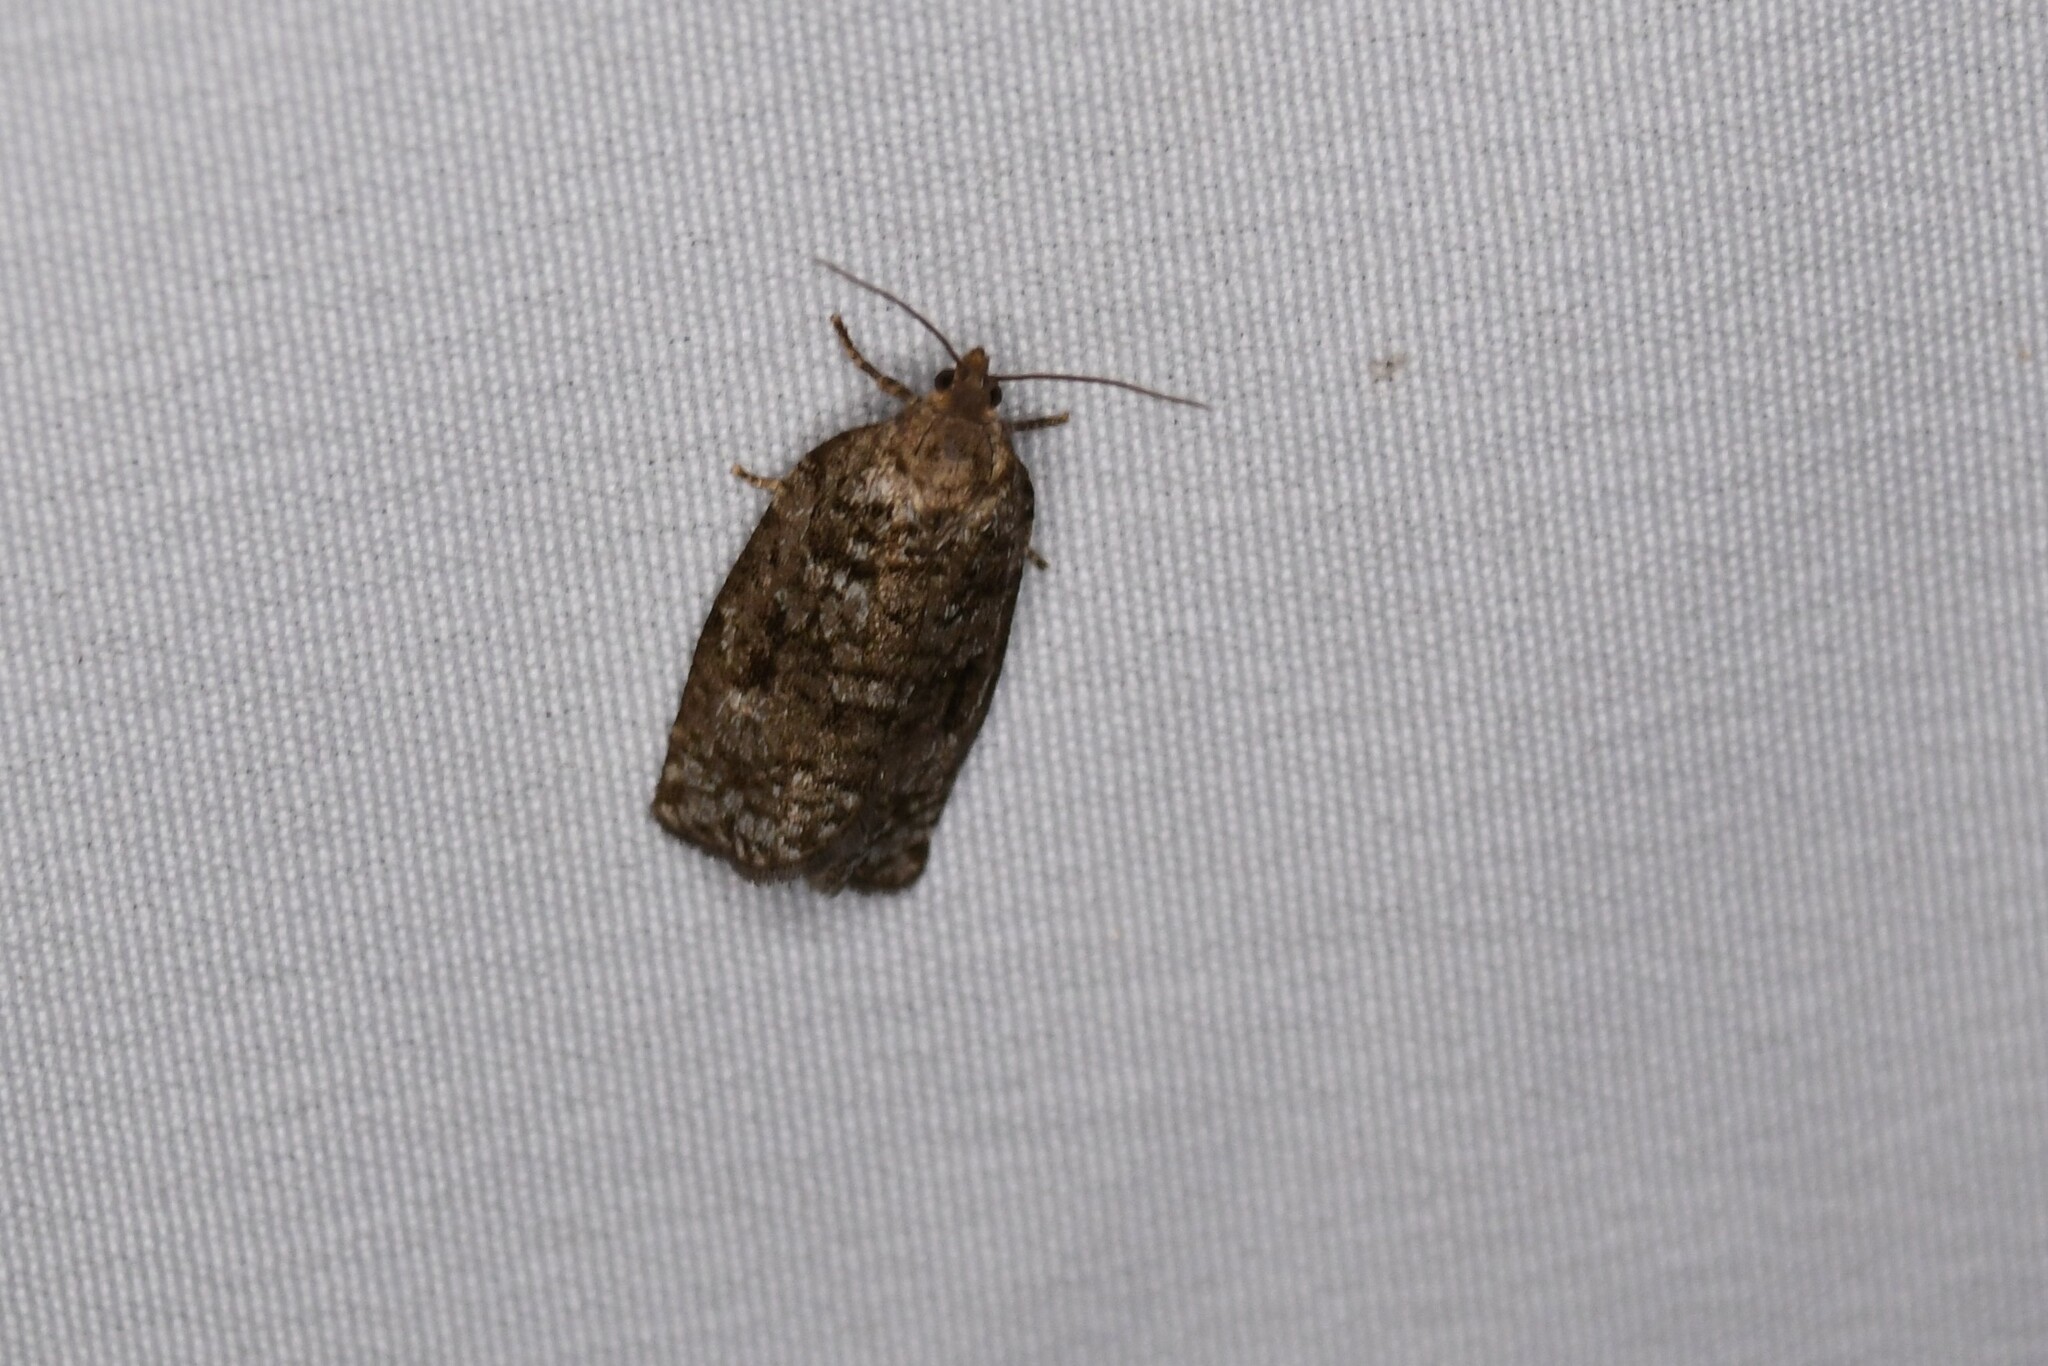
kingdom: Animalia
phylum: Arthropoda
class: Insecta
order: Lepidoptera
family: Tortricidae
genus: Choristoneura
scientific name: Choristoneura fumiferana
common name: Spruce budworm
